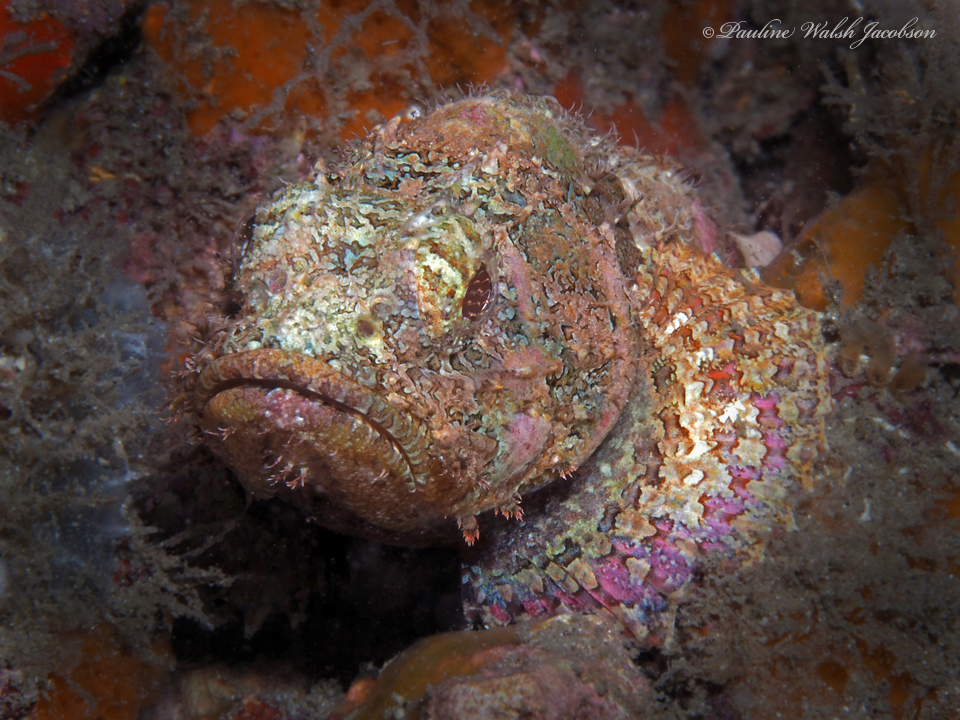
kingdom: Animalia
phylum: Chordata
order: Scorpaeniformes
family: Scorpaenidae
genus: Scorpaena
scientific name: Scorpaena plumieri
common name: Spotted scorpionfish
